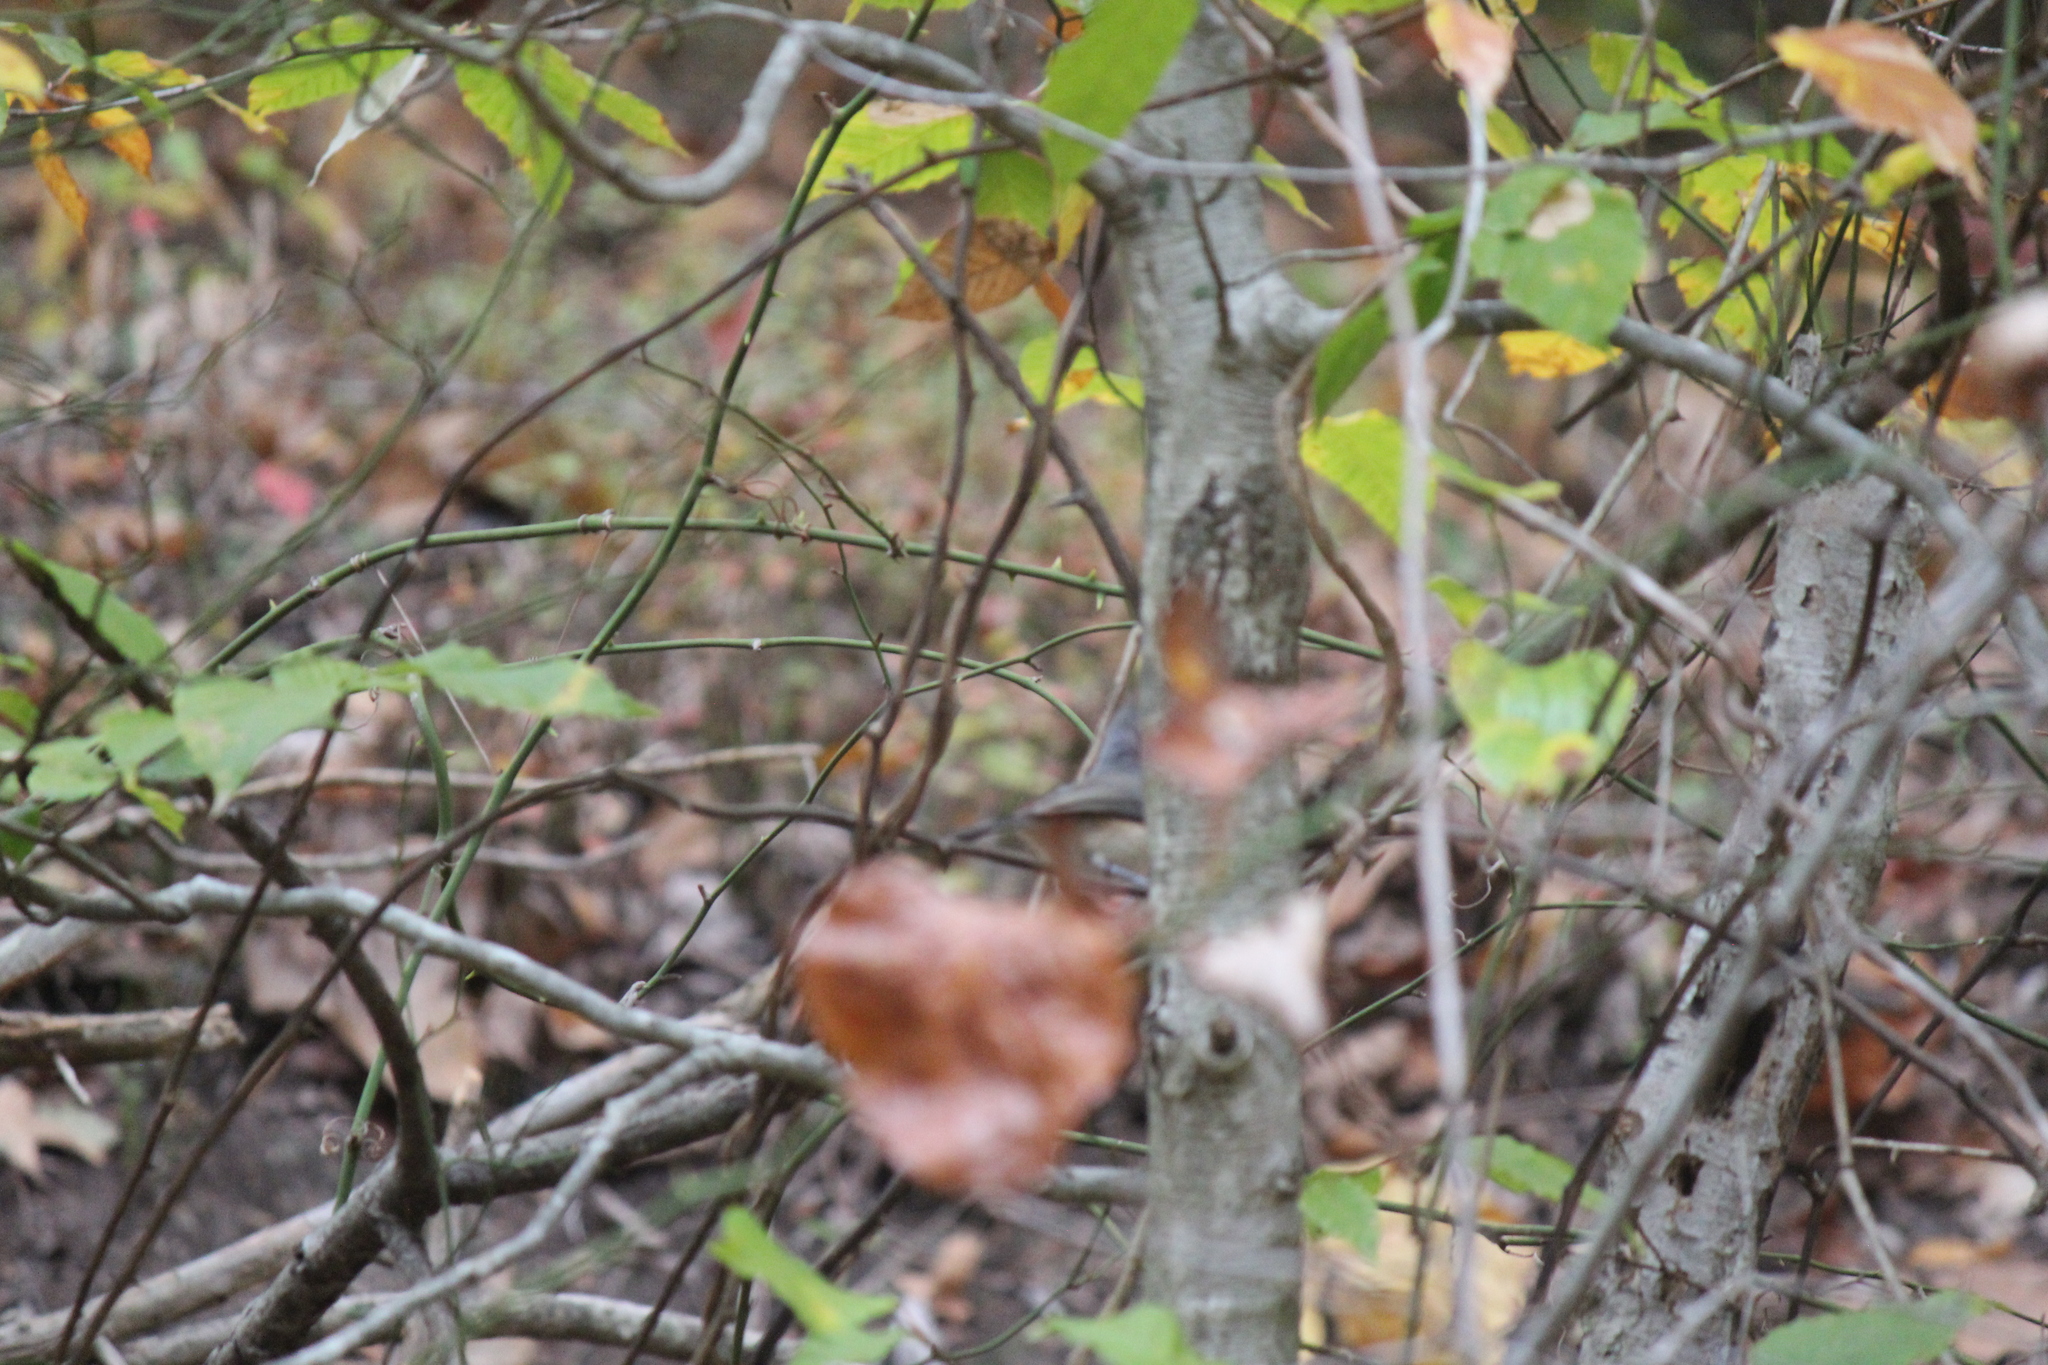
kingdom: Animalia
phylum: Chordata
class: Aves
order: Passeriformes
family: Paridae
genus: Baeolophus
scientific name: Baeolophus bicolor
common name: Tufted titmouse
